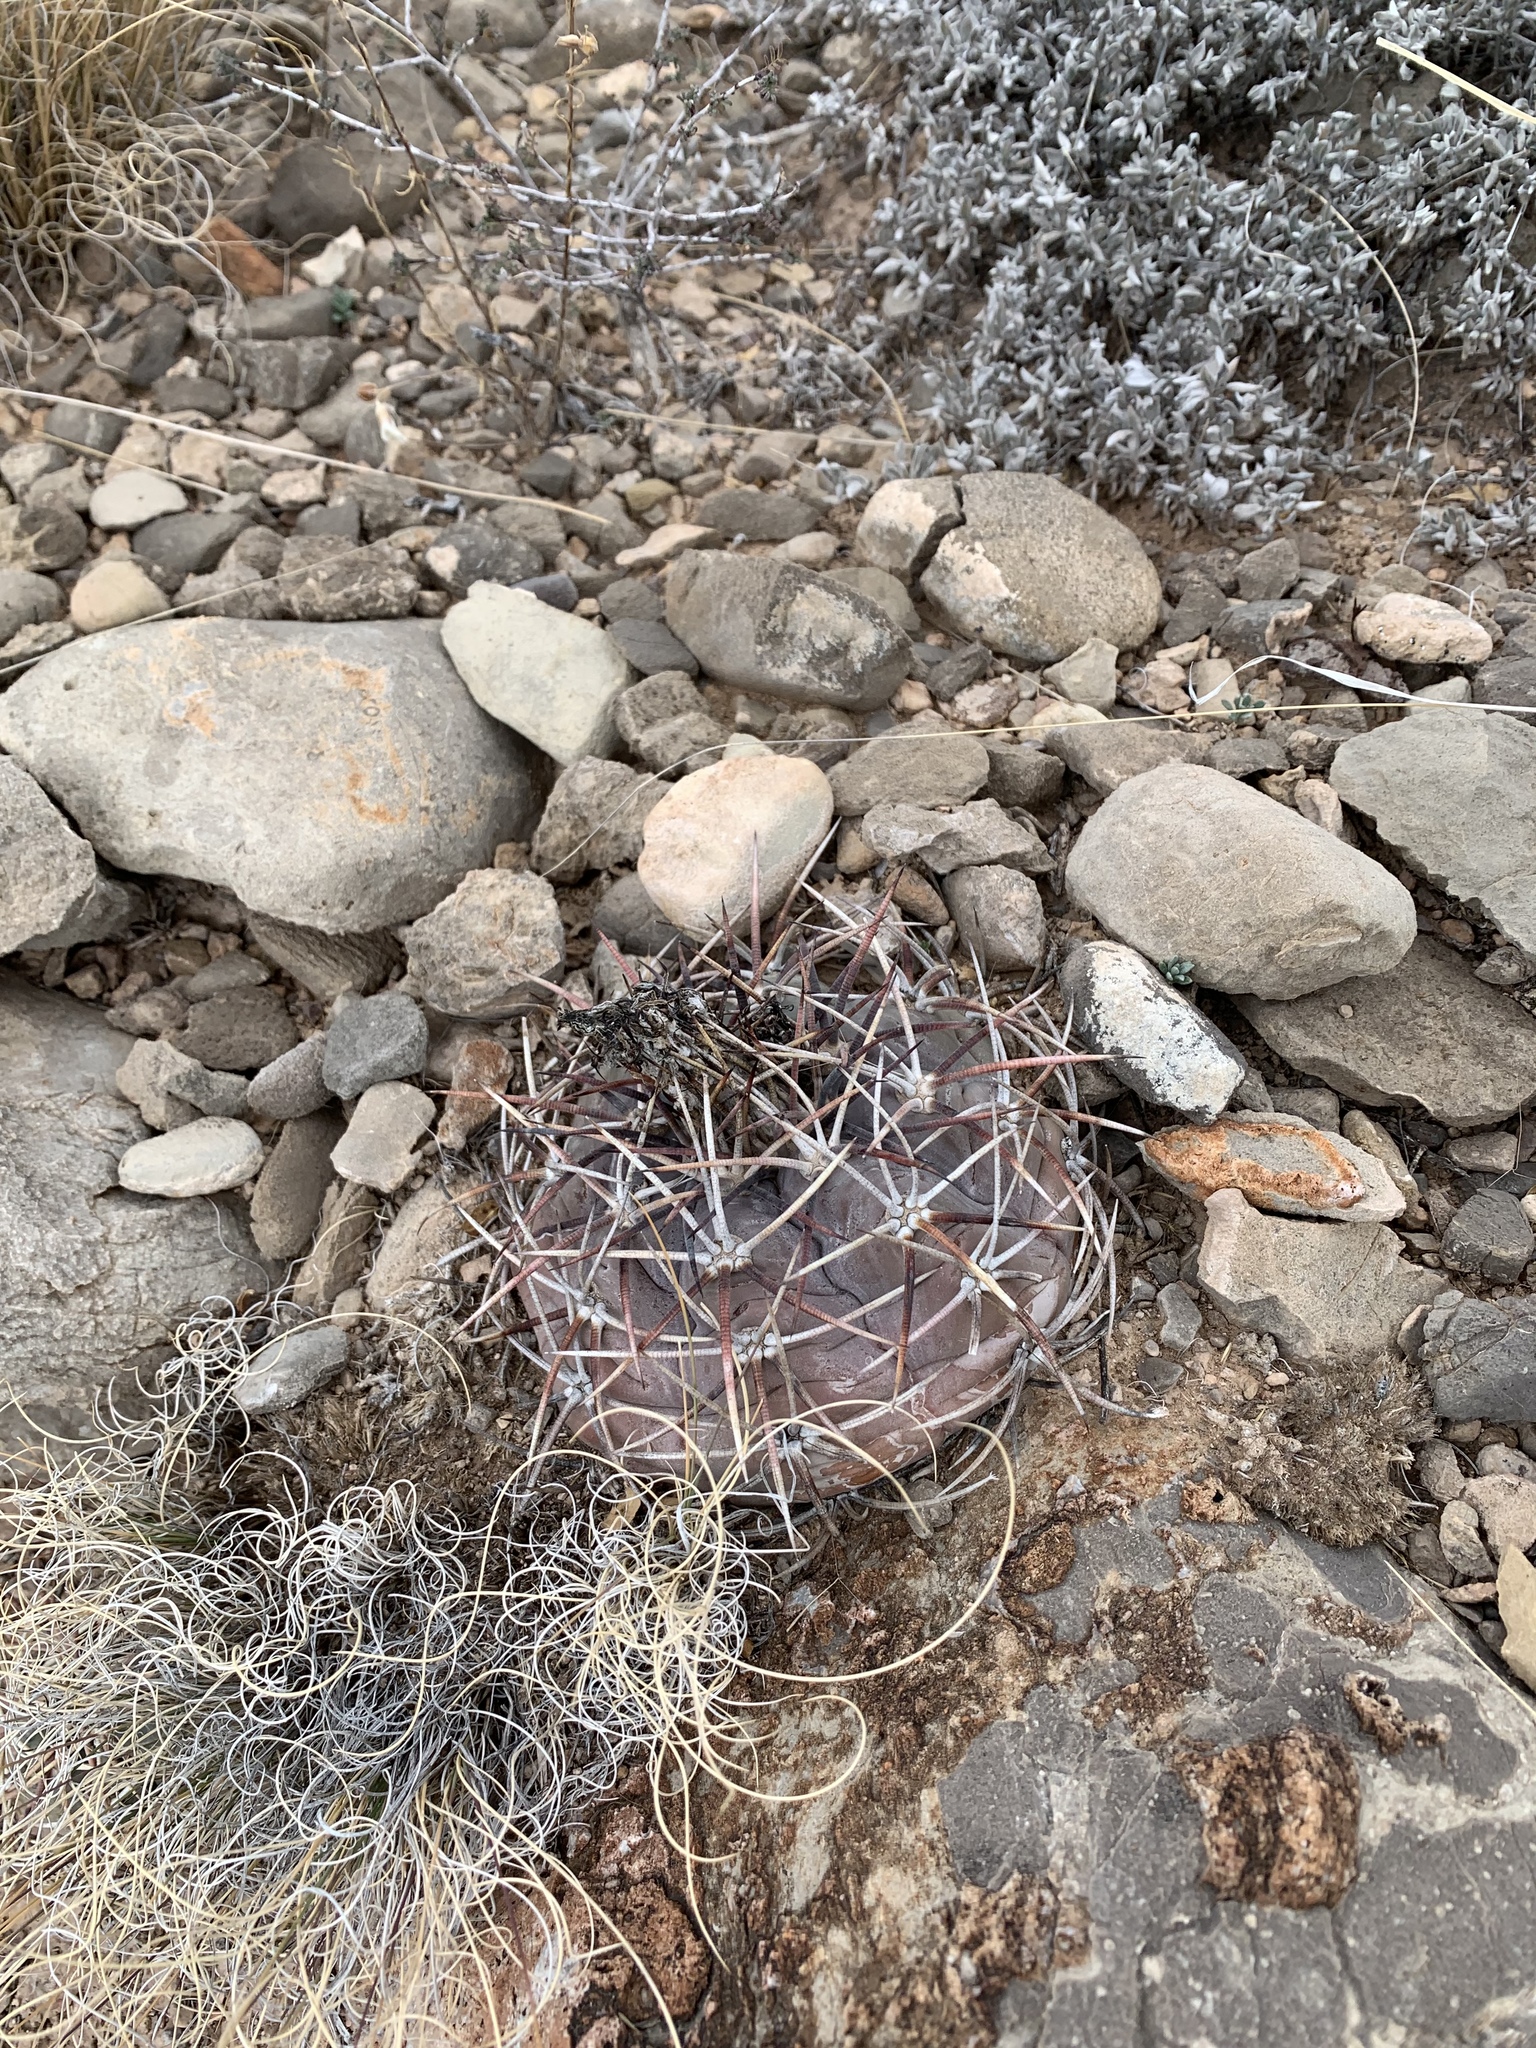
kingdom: Plantae
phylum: Tracheophyta
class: Magnoliopsida
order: Caryophyllales
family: Cactaceae
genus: Echinocactus
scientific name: Echinocactus horizonthalonius
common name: Devilshead
